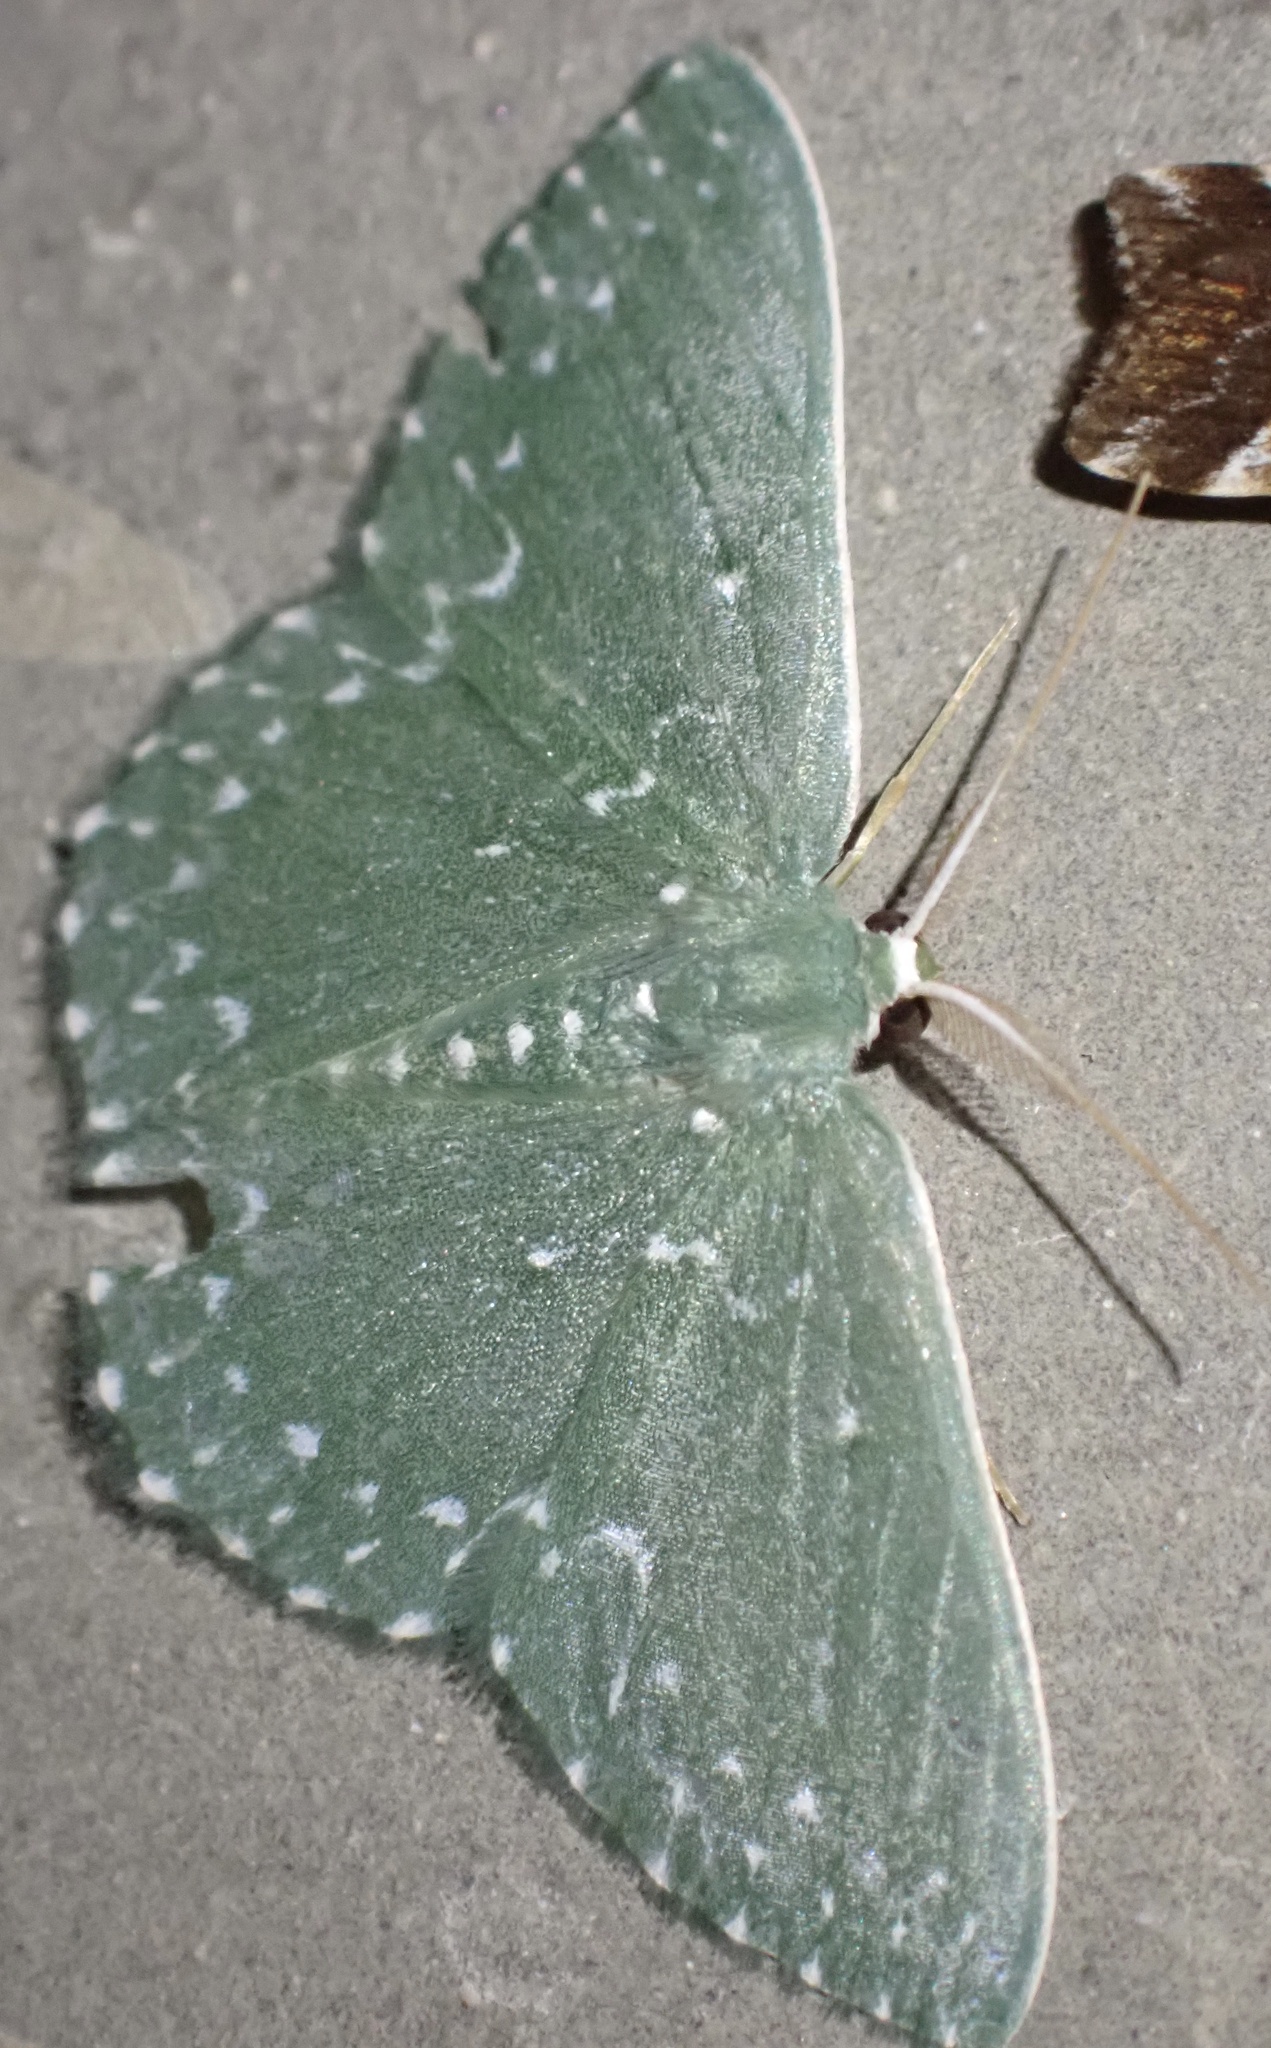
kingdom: Animalia
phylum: Arthropoda
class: Insecta
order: Lepidoptera
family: Geometridae
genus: Prasinocyma
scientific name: Prasinocyma
